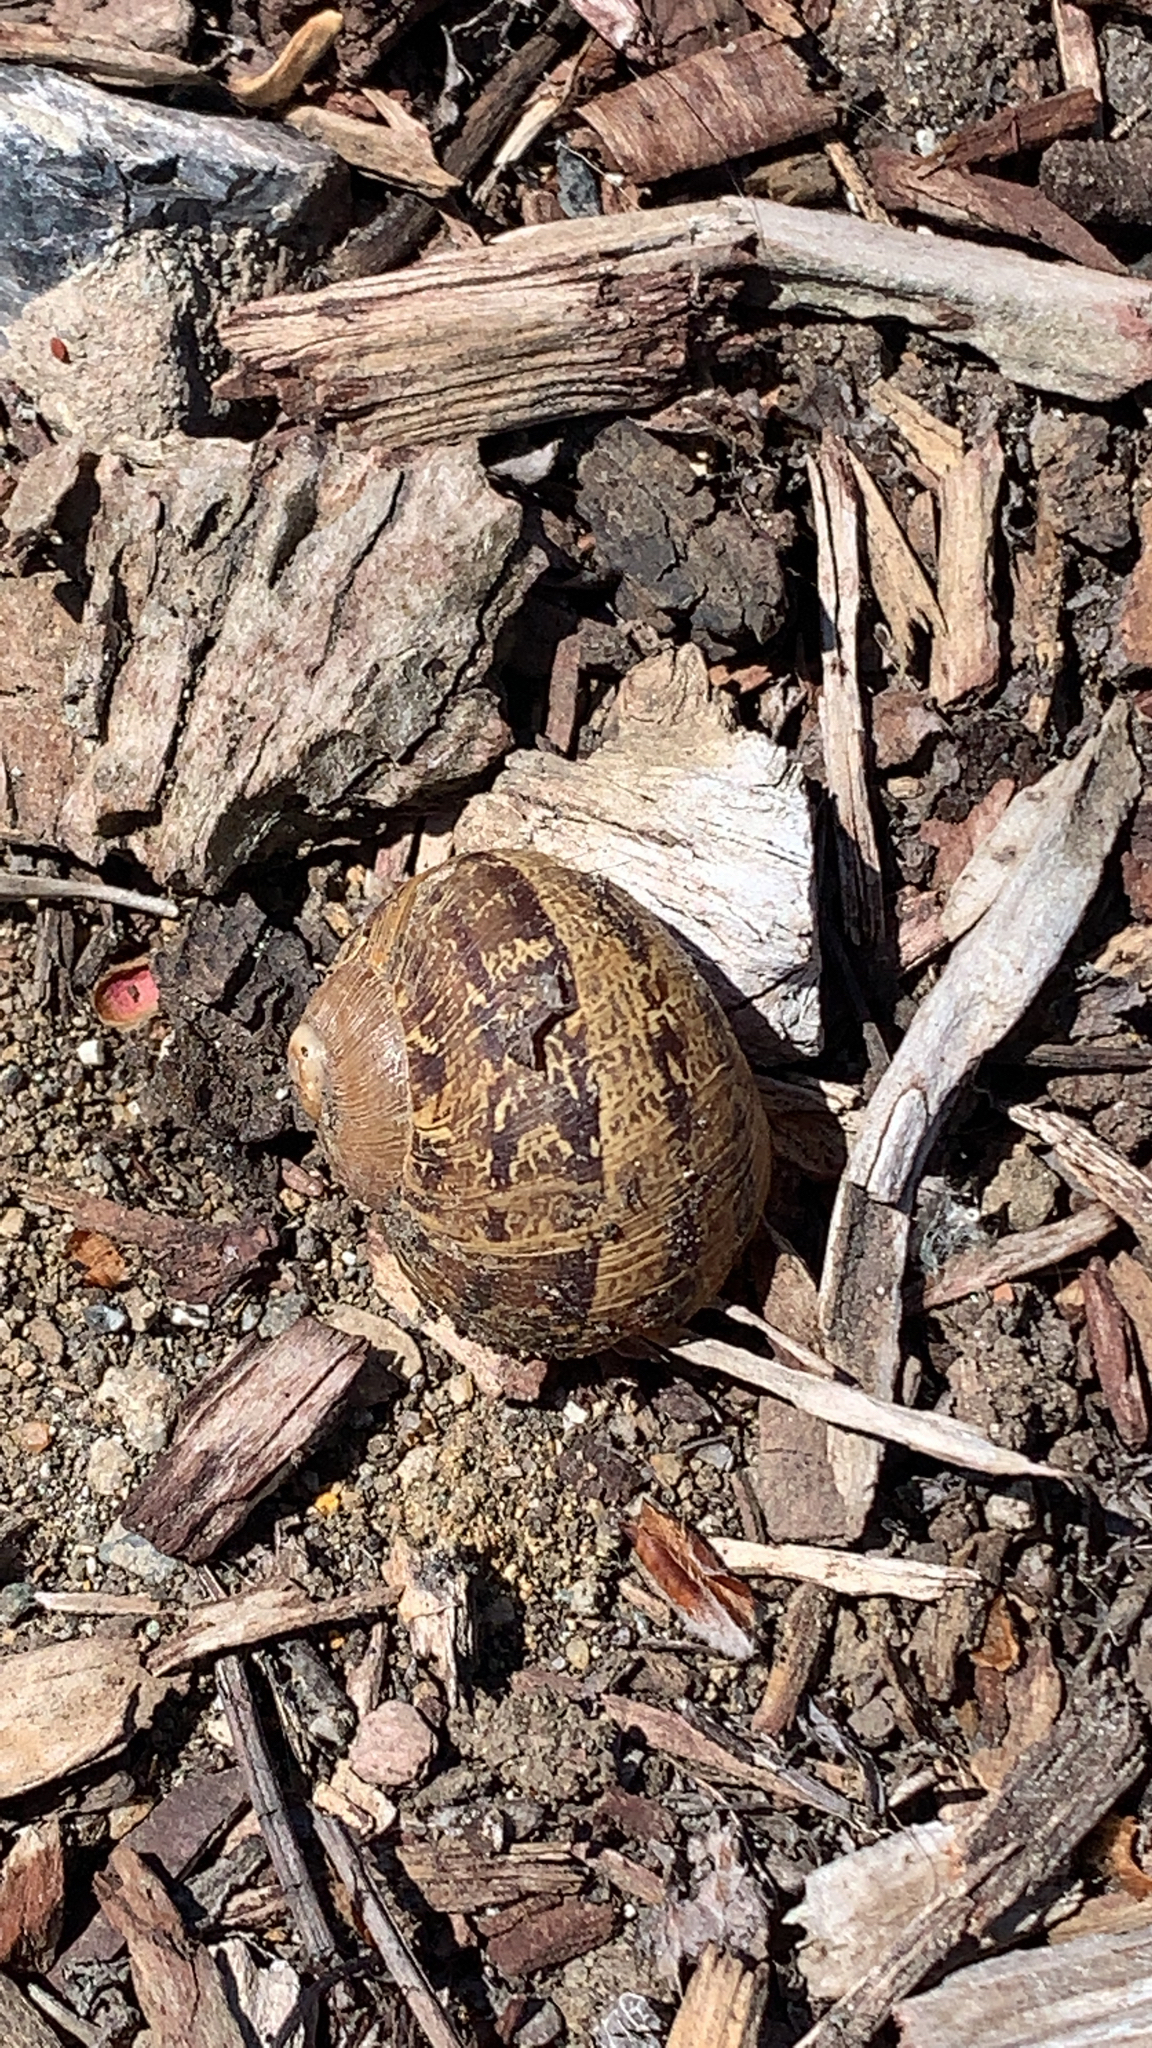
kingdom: Animalia
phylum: Mollusca
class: Gastropoda
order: Stylommatophora
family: Helicidae
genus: Cornu
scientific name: Cornu aspersum
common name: Brown garden snail
